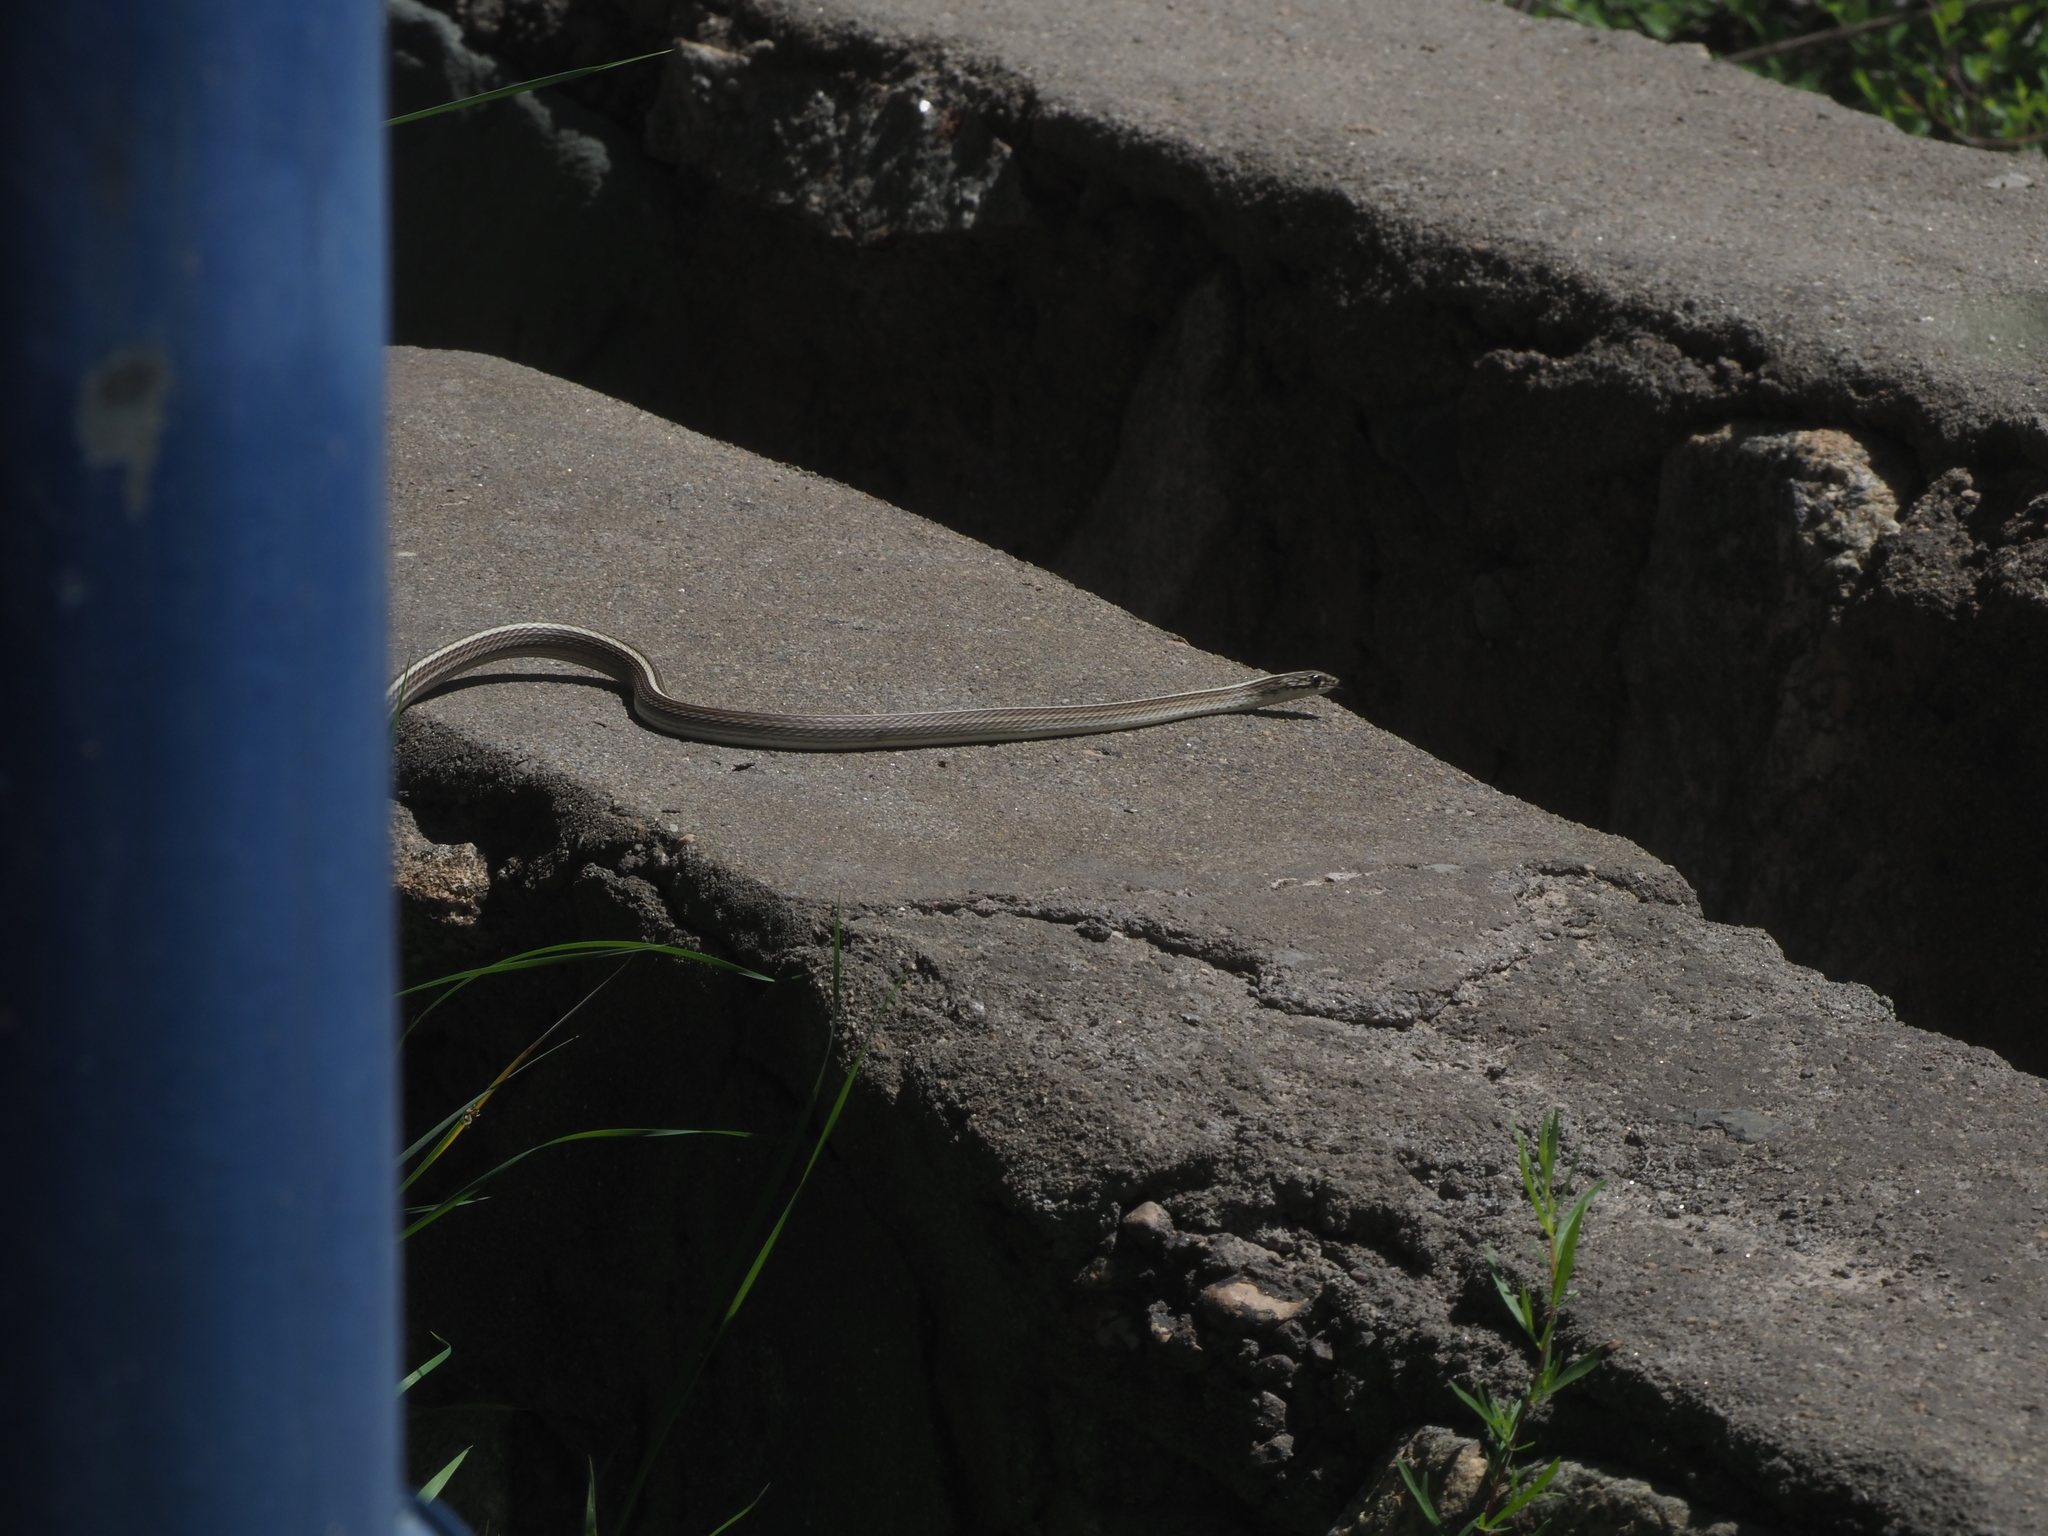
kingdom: Animalia
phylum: Chordata
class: Squamata
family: Colubridae
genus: Orientocoluber
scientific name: Orientocoluber spinalis
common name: Slender racer
